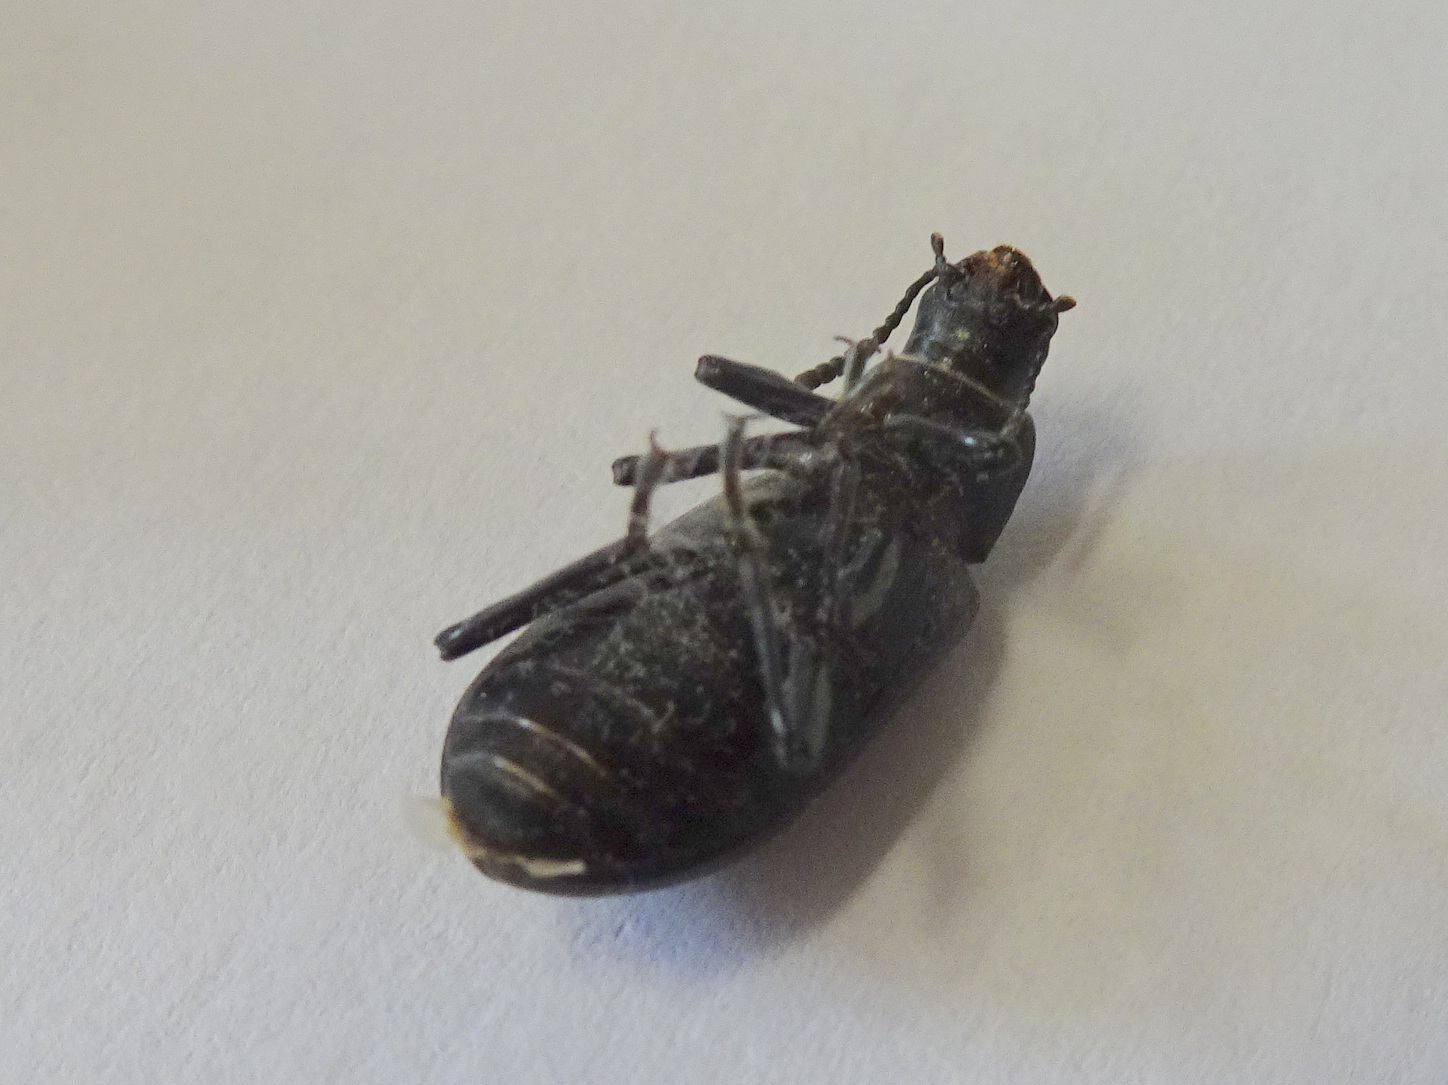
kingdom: Animalia
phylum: Arthropoda
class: Insecta
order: Coleoptera
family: Tenebrionidae
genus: Alobates
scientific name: Alobates pensylvanicus
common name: False mealworm beetle
